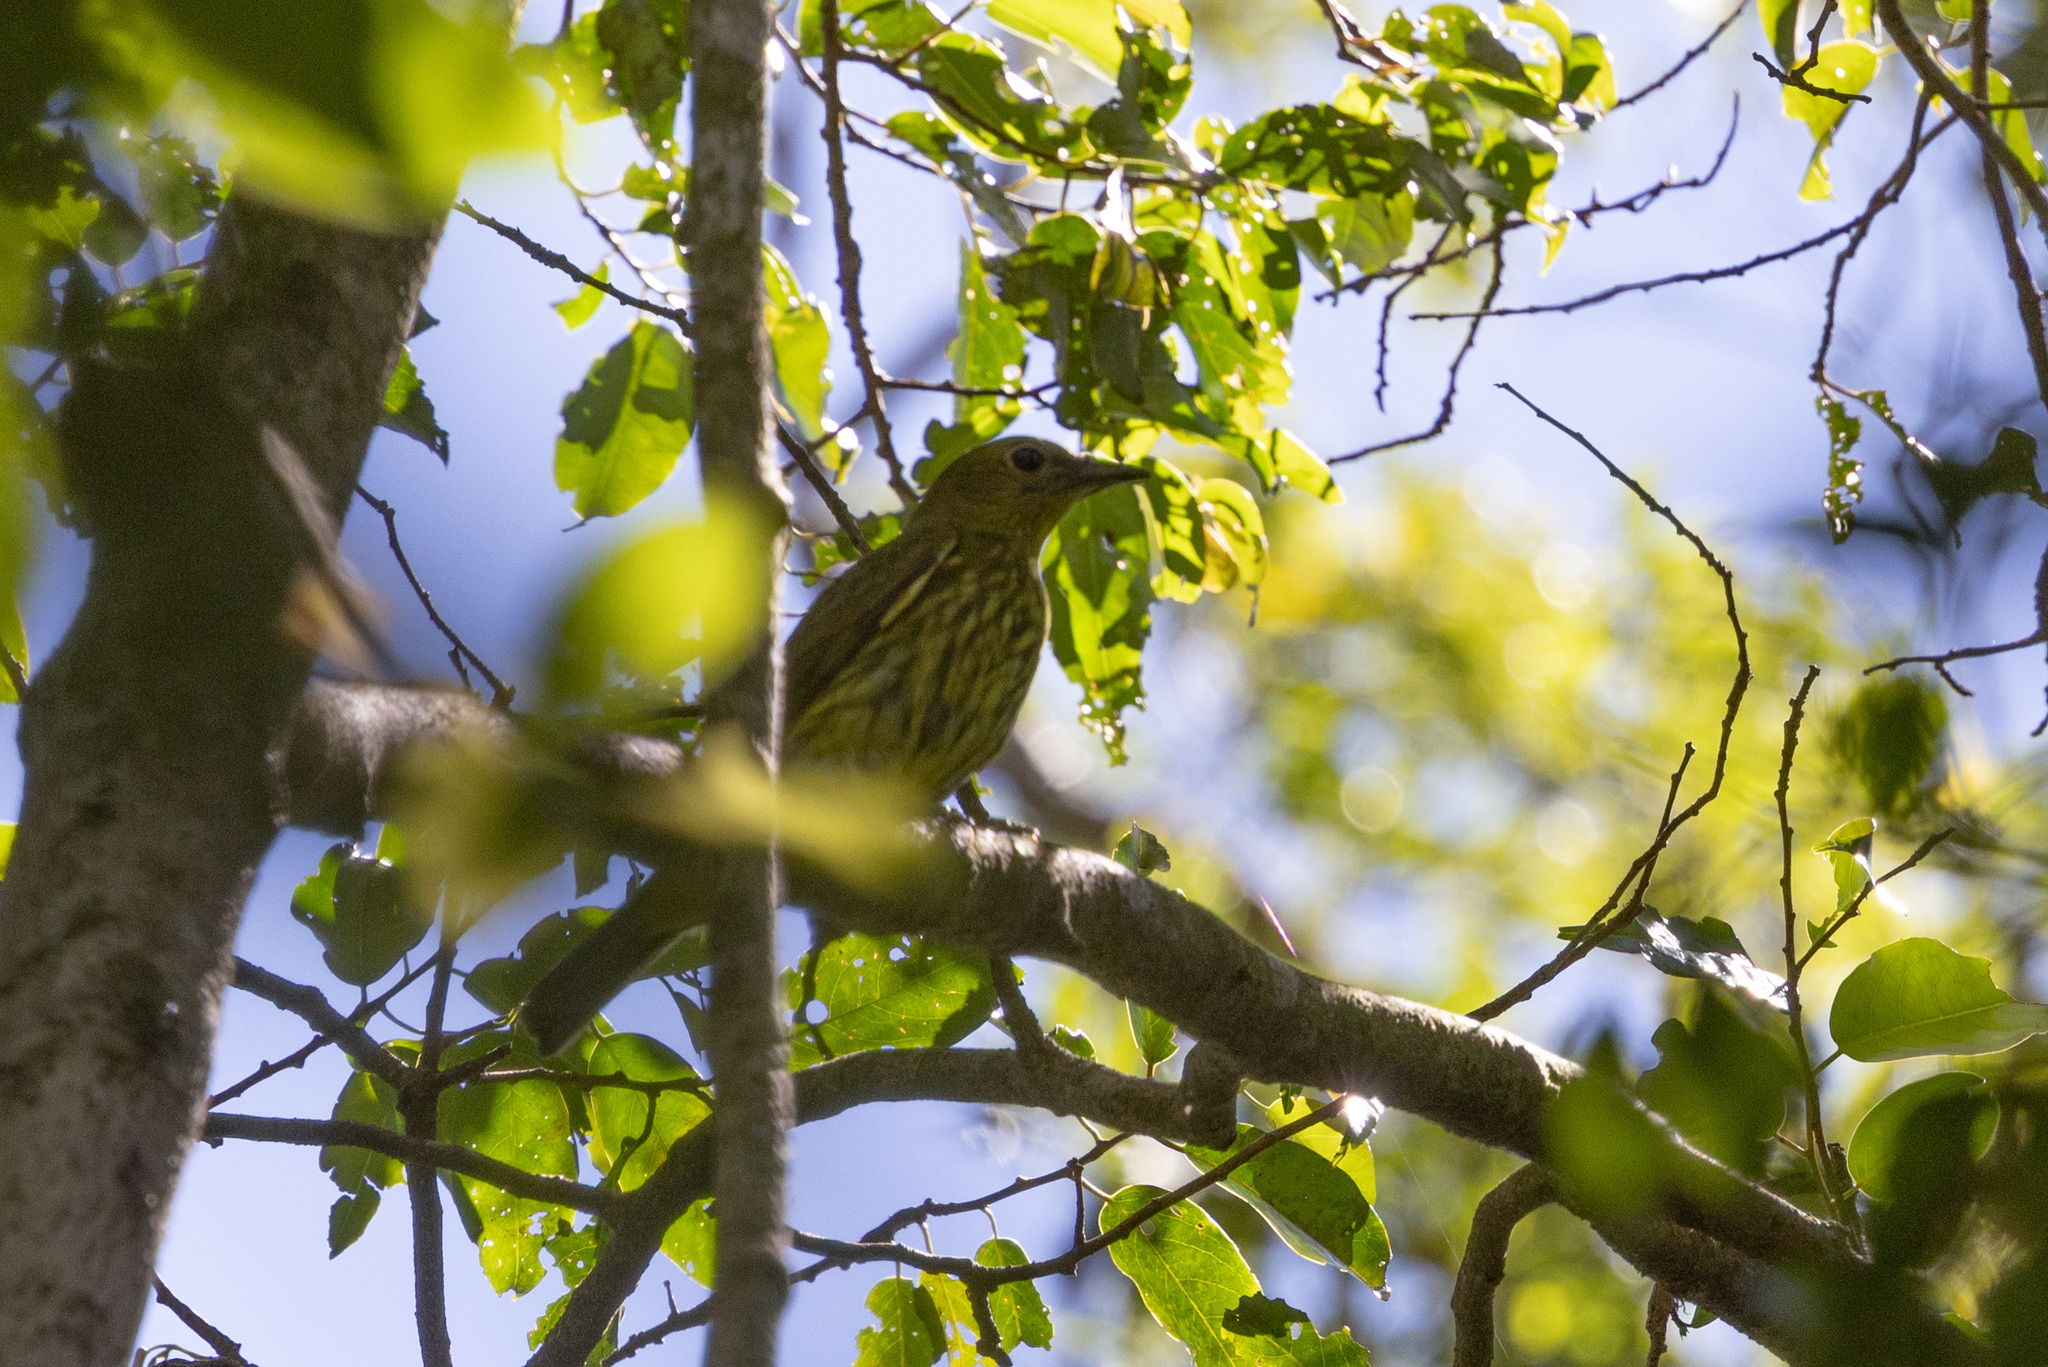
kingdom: Animalia
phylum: Chordata
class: Aves
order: Passeriformes
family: Cotingidae
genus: Procnias
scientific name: Procnias tricarunculatus
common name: Three-wattled bellbird
